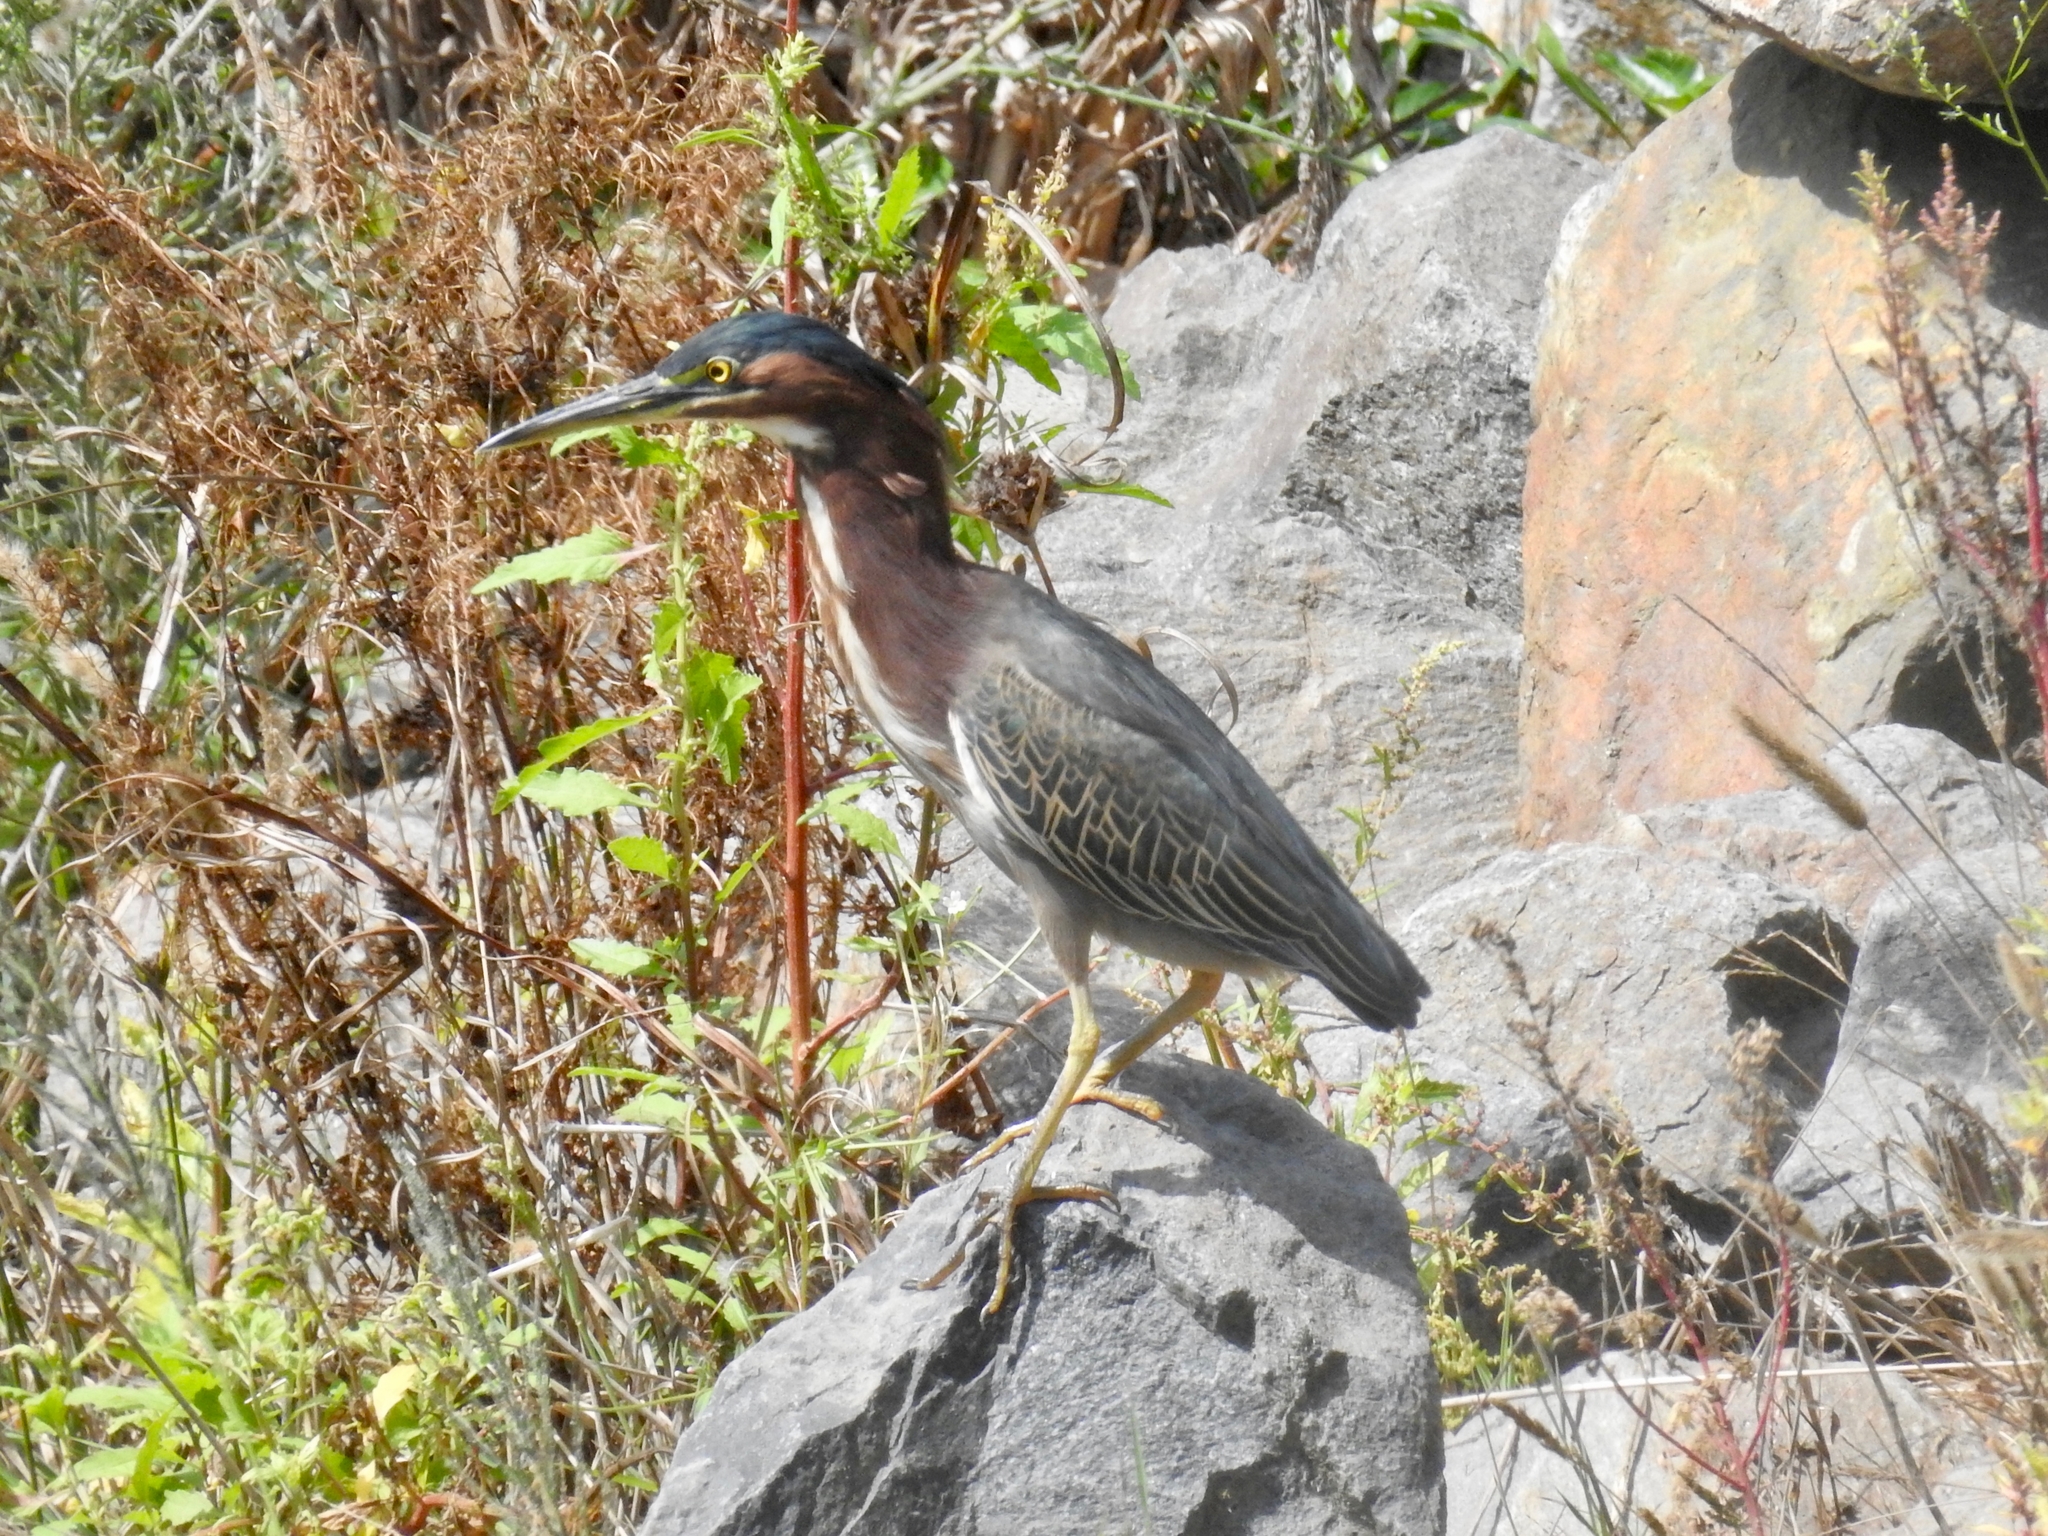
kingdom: Animalia
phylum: Chordata
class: Aves
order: Pelecaniformes
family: Ardeidae
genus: Butorides
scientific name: Butorides virescens
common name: Green heron
